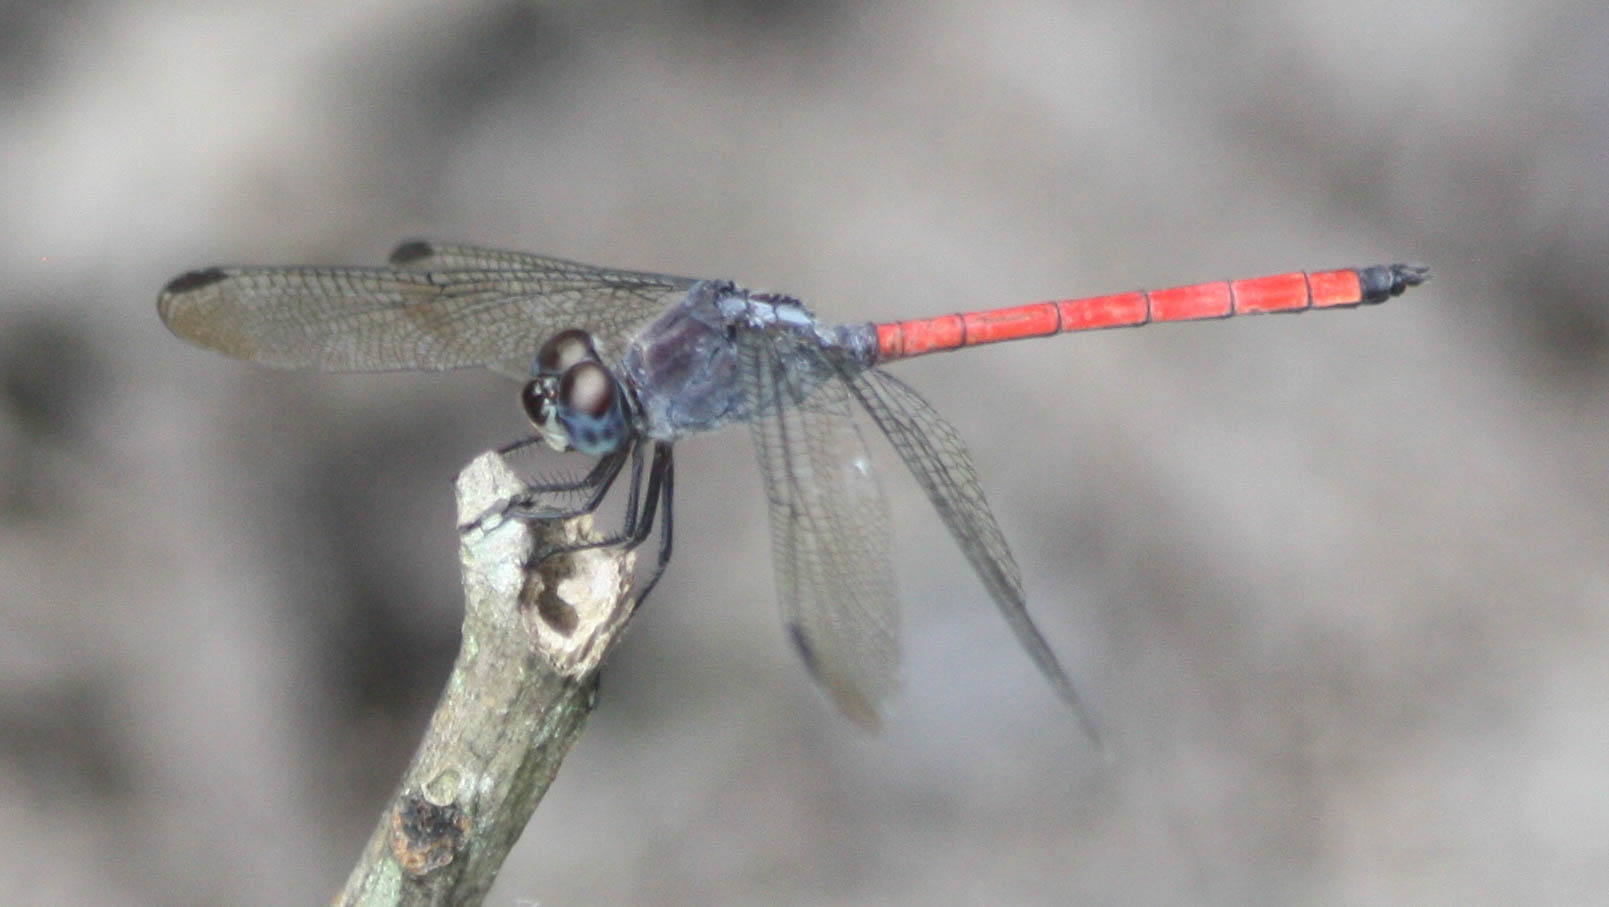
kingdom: Animalia
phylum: Arthropoda
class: Insecta
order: Odonata
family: Libellulidae
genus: Lathrecista
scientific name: Lathrecista asiatica
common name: Scarlet grenadier
